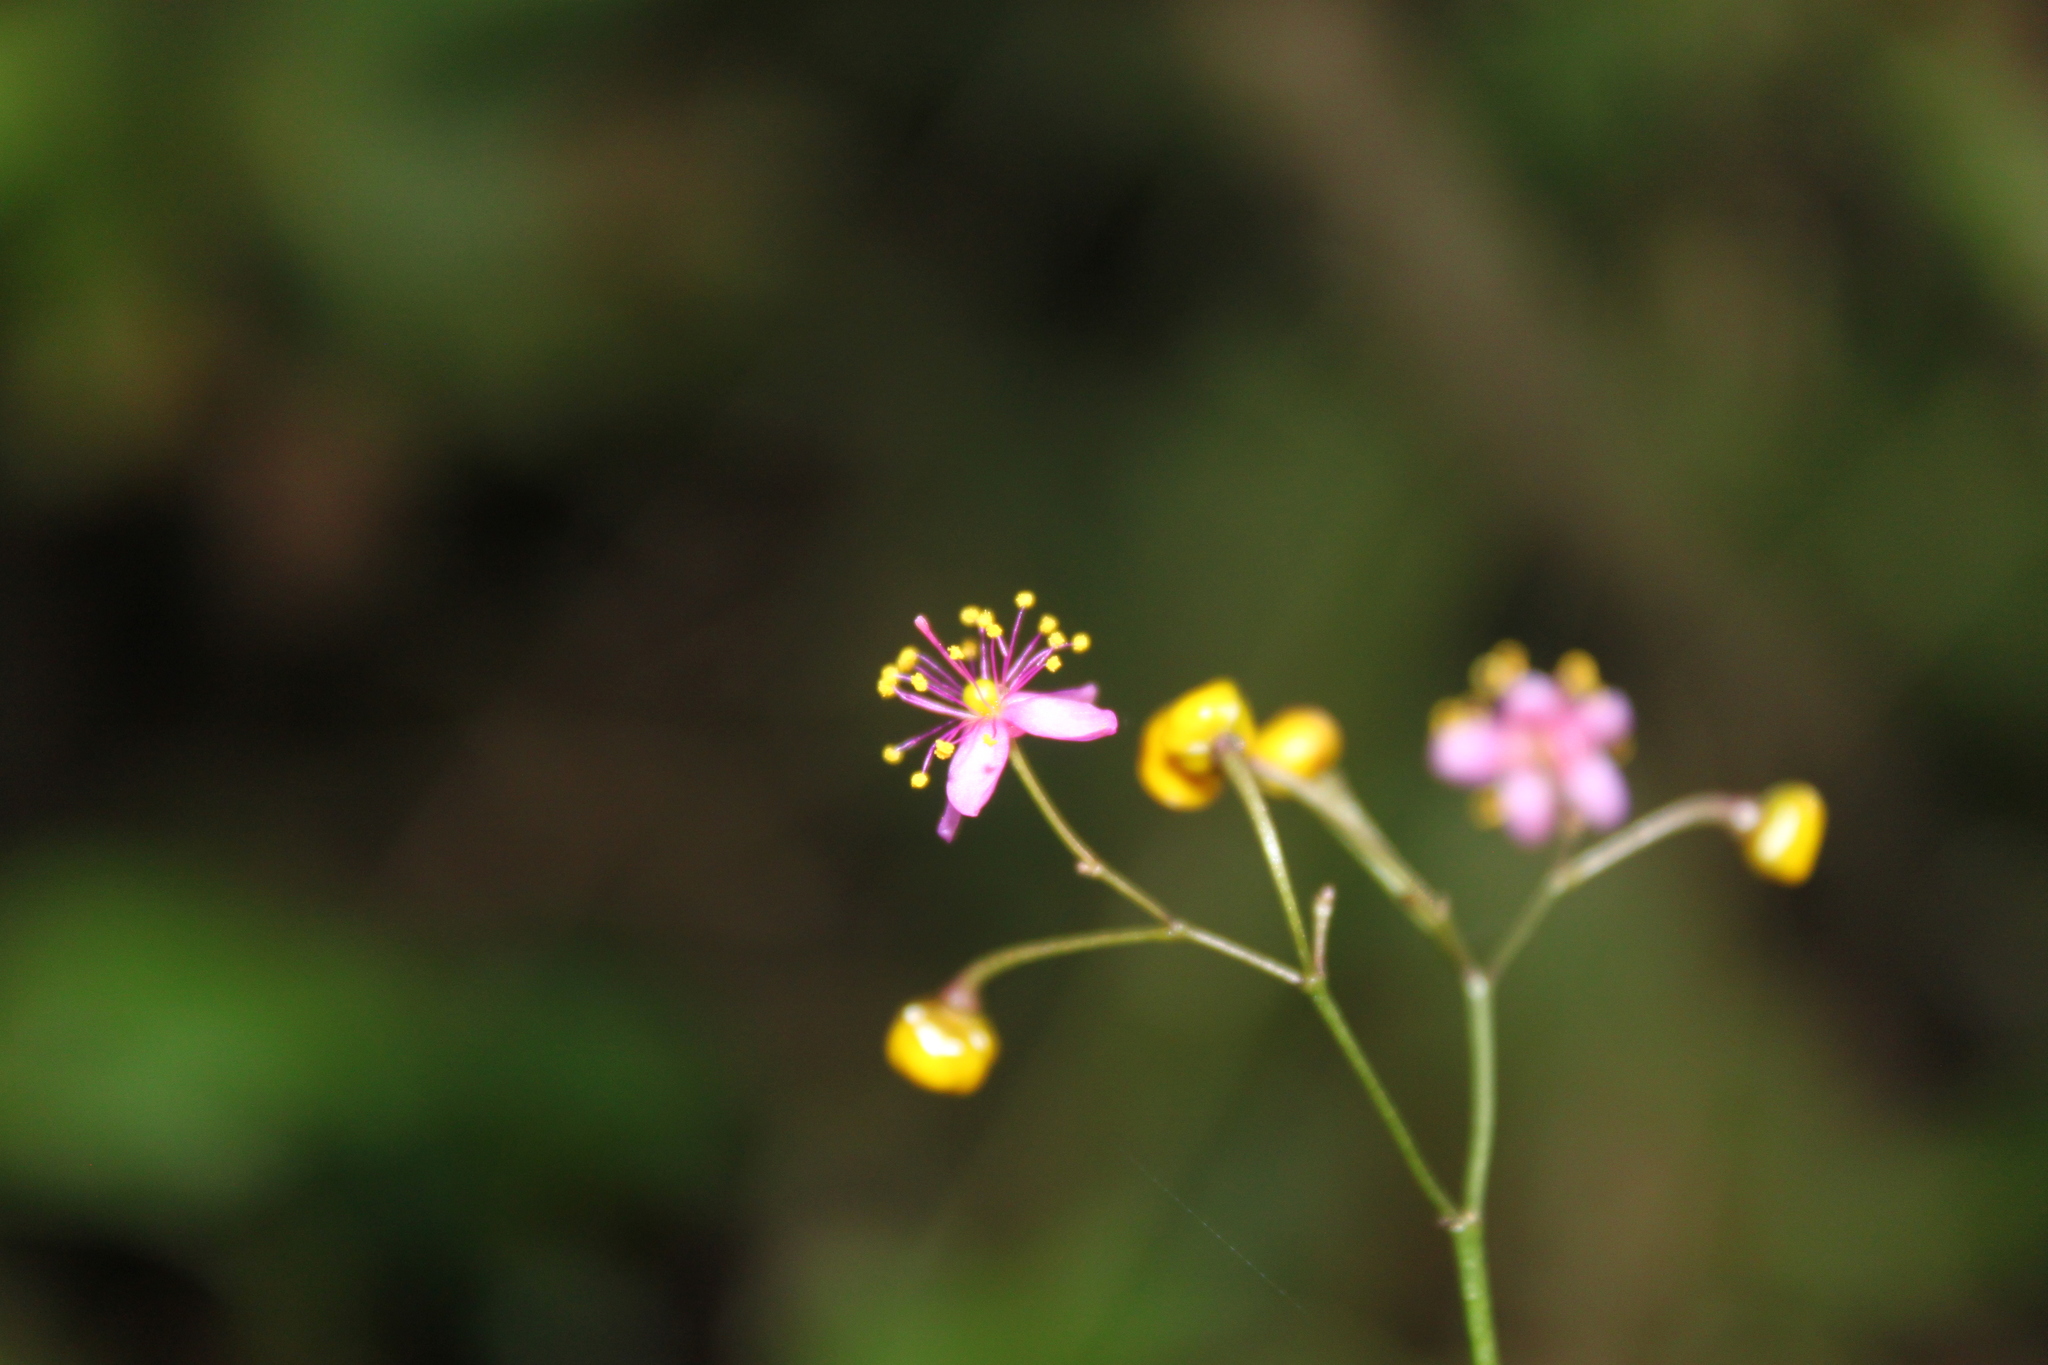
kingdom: Plantae
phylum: Tracheophyta
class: Magnoliopsida
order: Caryophyllales
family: Talinaceae
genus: Talinum
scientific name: Talinum paniculatum
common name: Jewels of opar
